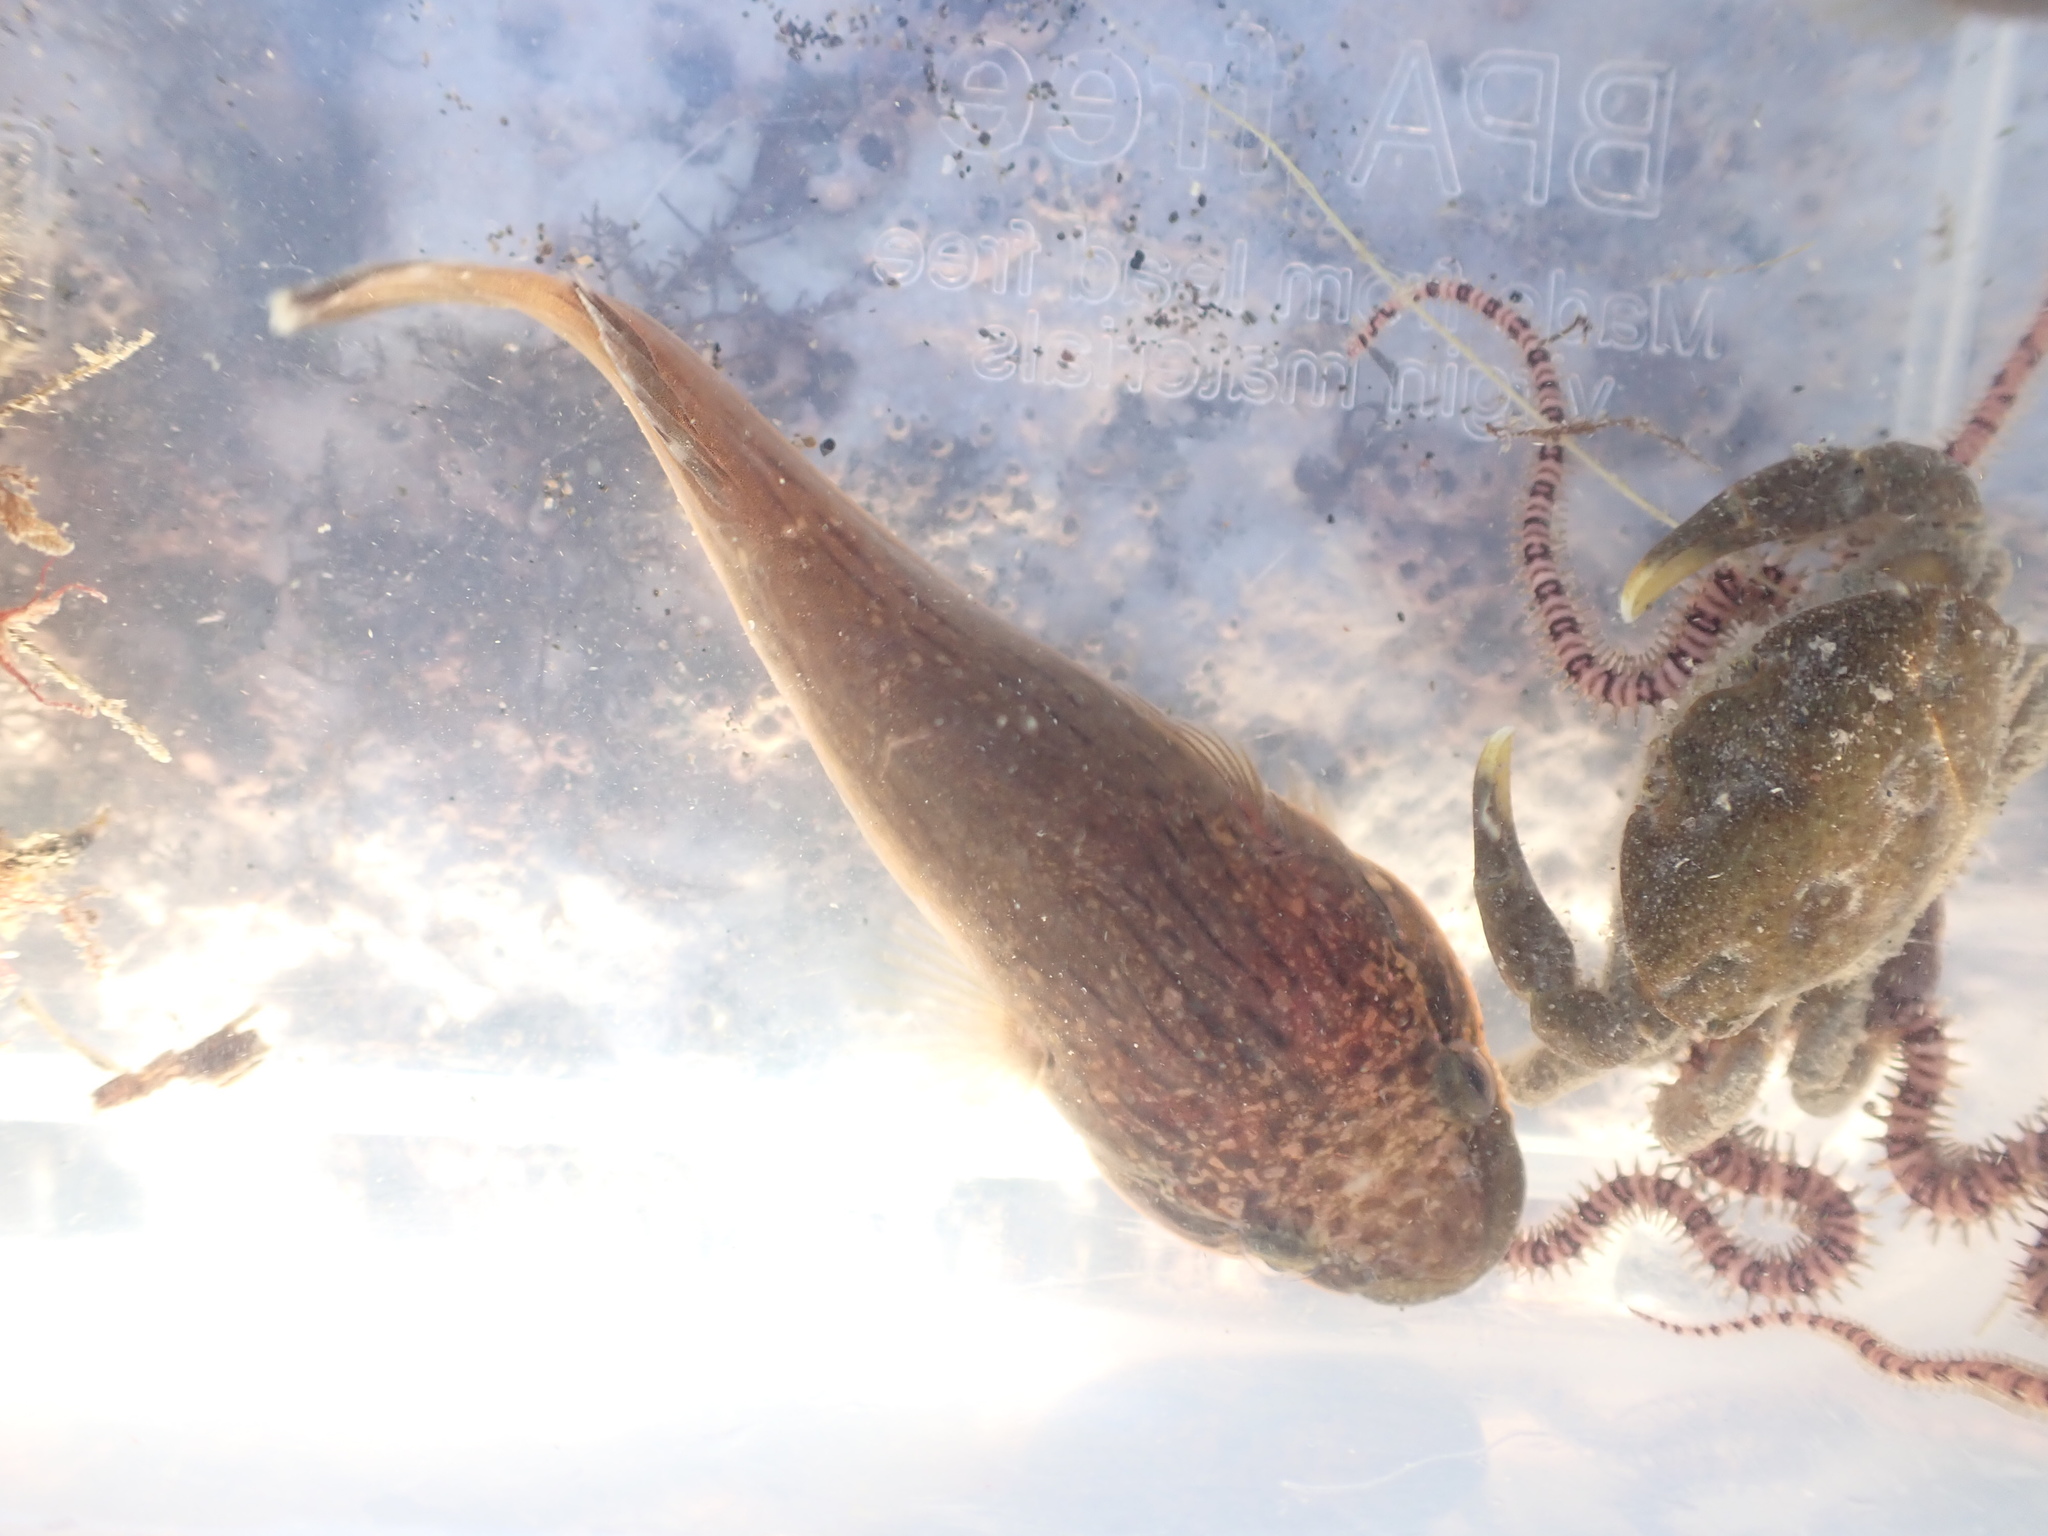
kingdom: Animalia
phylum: Chordata
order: Gobiesociformes
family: Gobiesocidae
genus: Trachelochismus
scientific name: Trachelochismus pinnulatus
